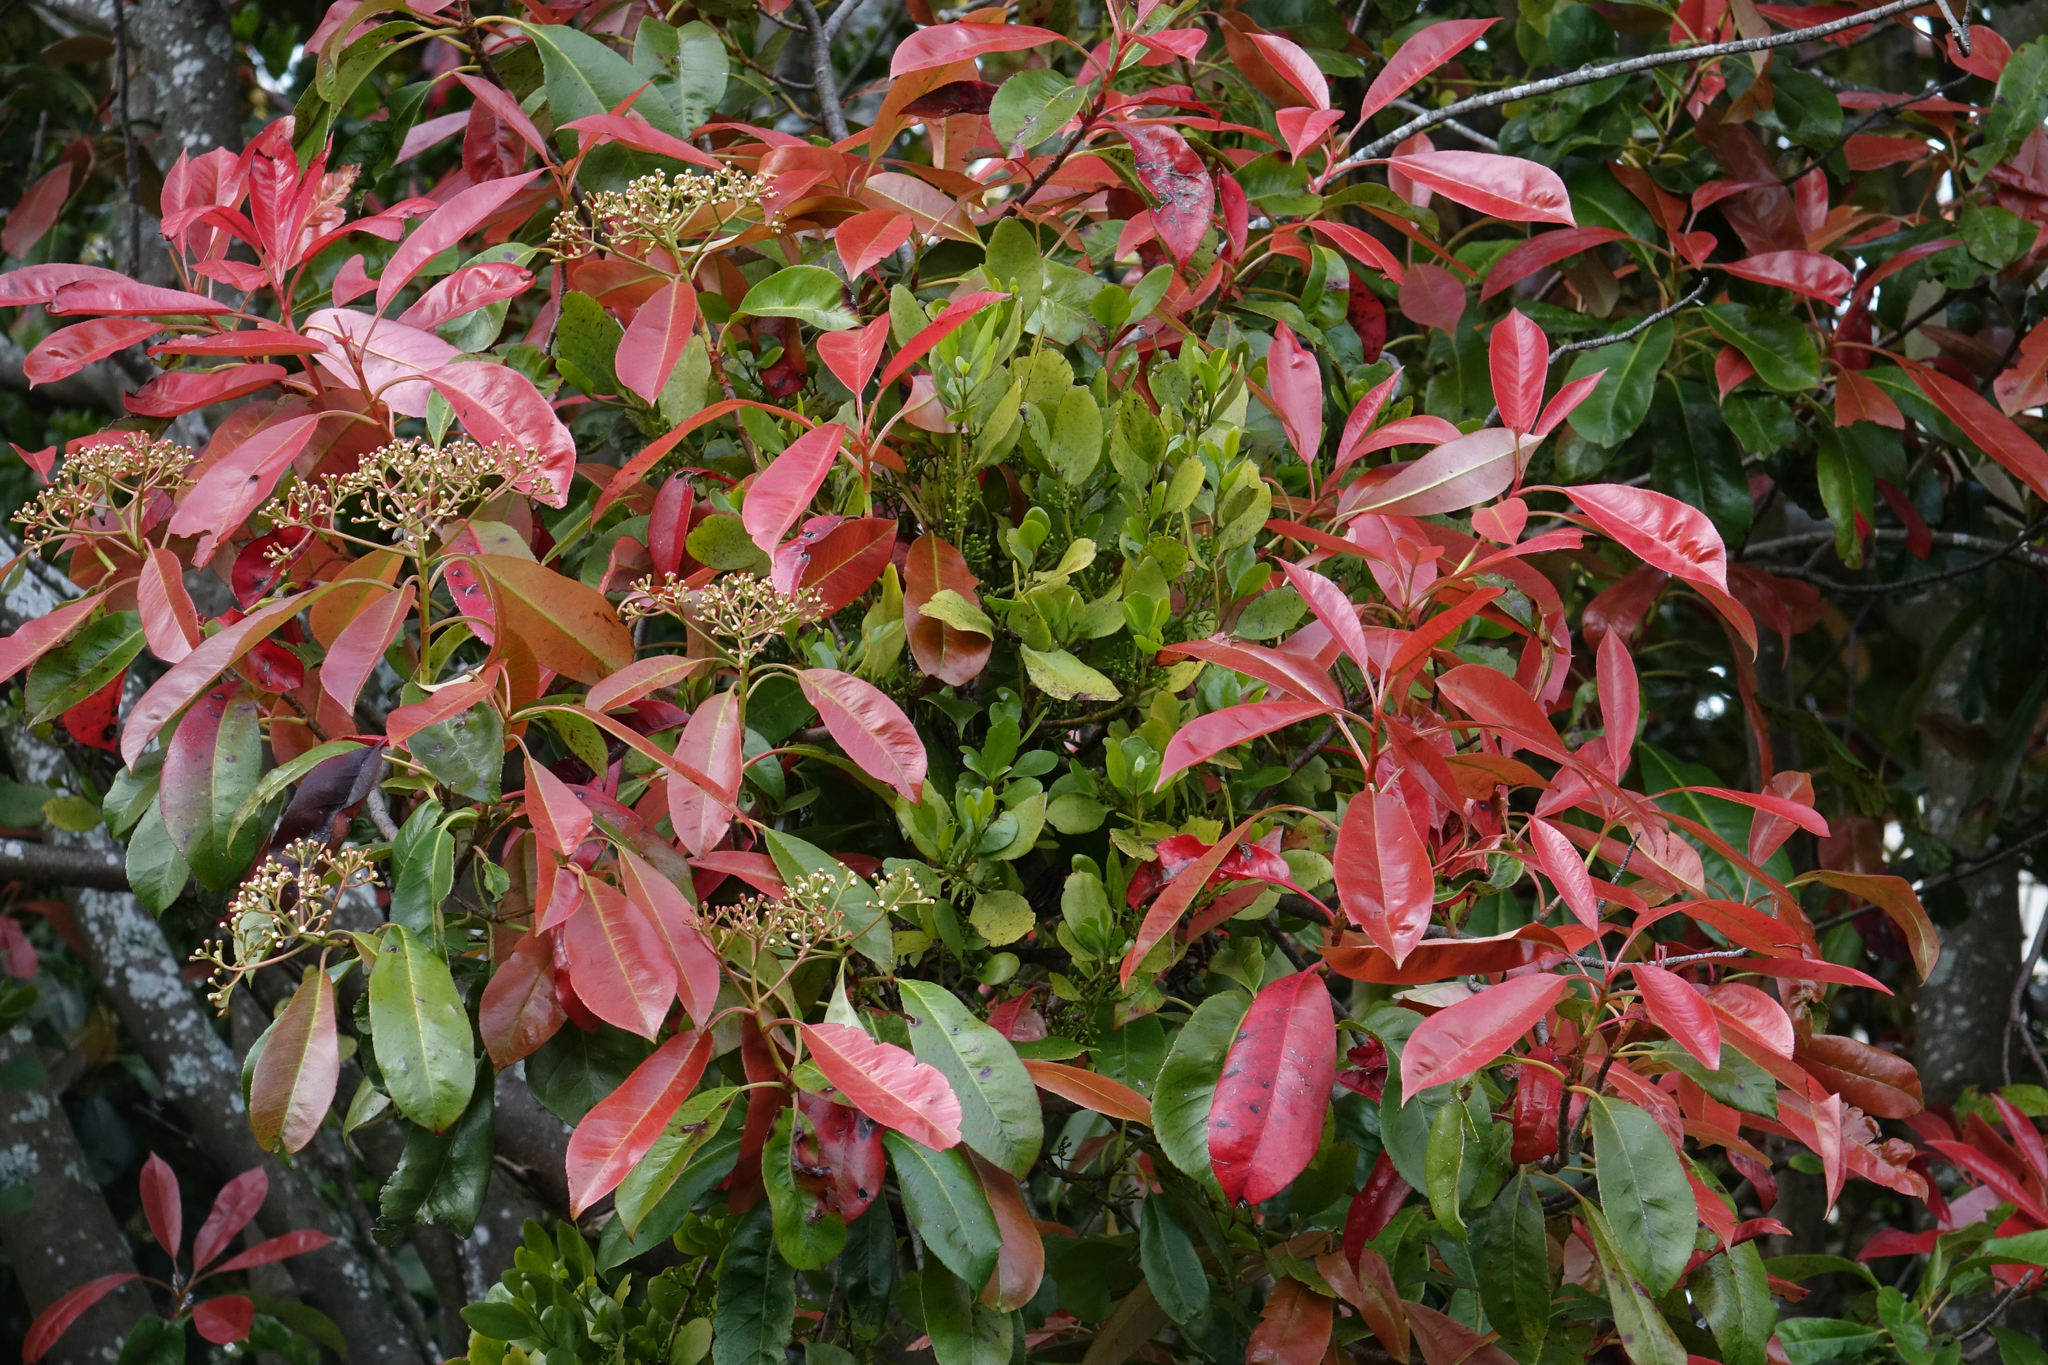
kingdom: Plantae
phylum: Tracheophyta
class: Magnoliopsida
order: Santalales
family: Loranthaceae
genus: Ileostylus
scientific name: Ileostylus micranthus
